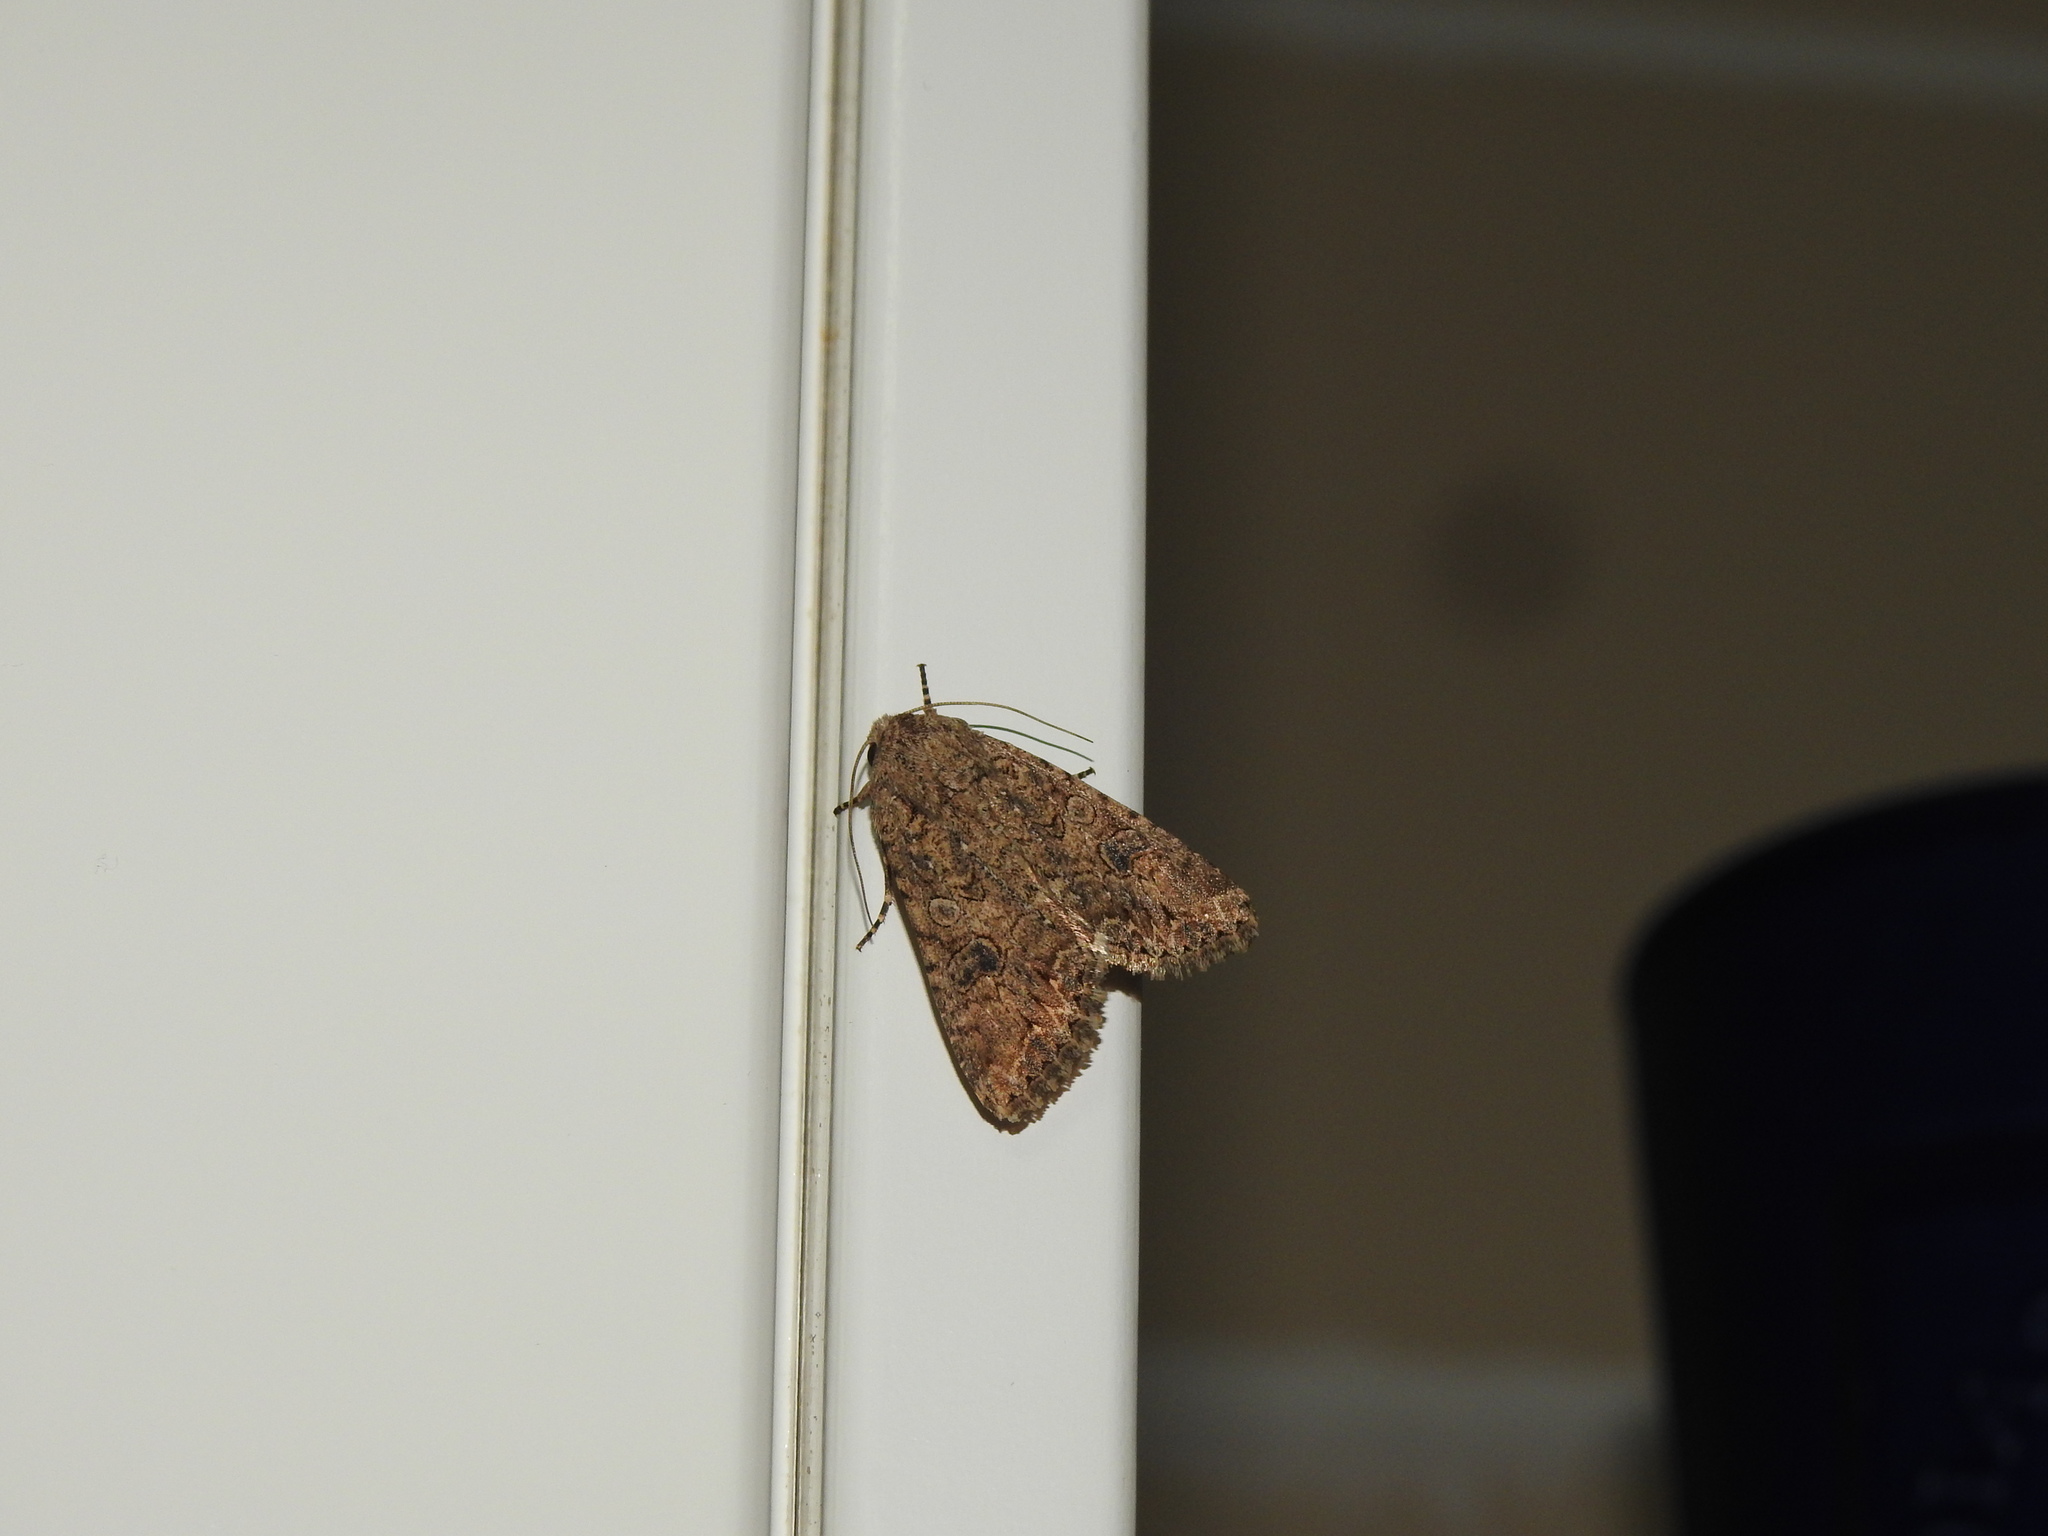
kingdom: Animalia
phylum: Arthropoda
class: Insecta
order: Lepidoptera
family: Noctuidae
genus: Anarta
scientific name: Anarta trifolii
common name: Clover cutworm moth
